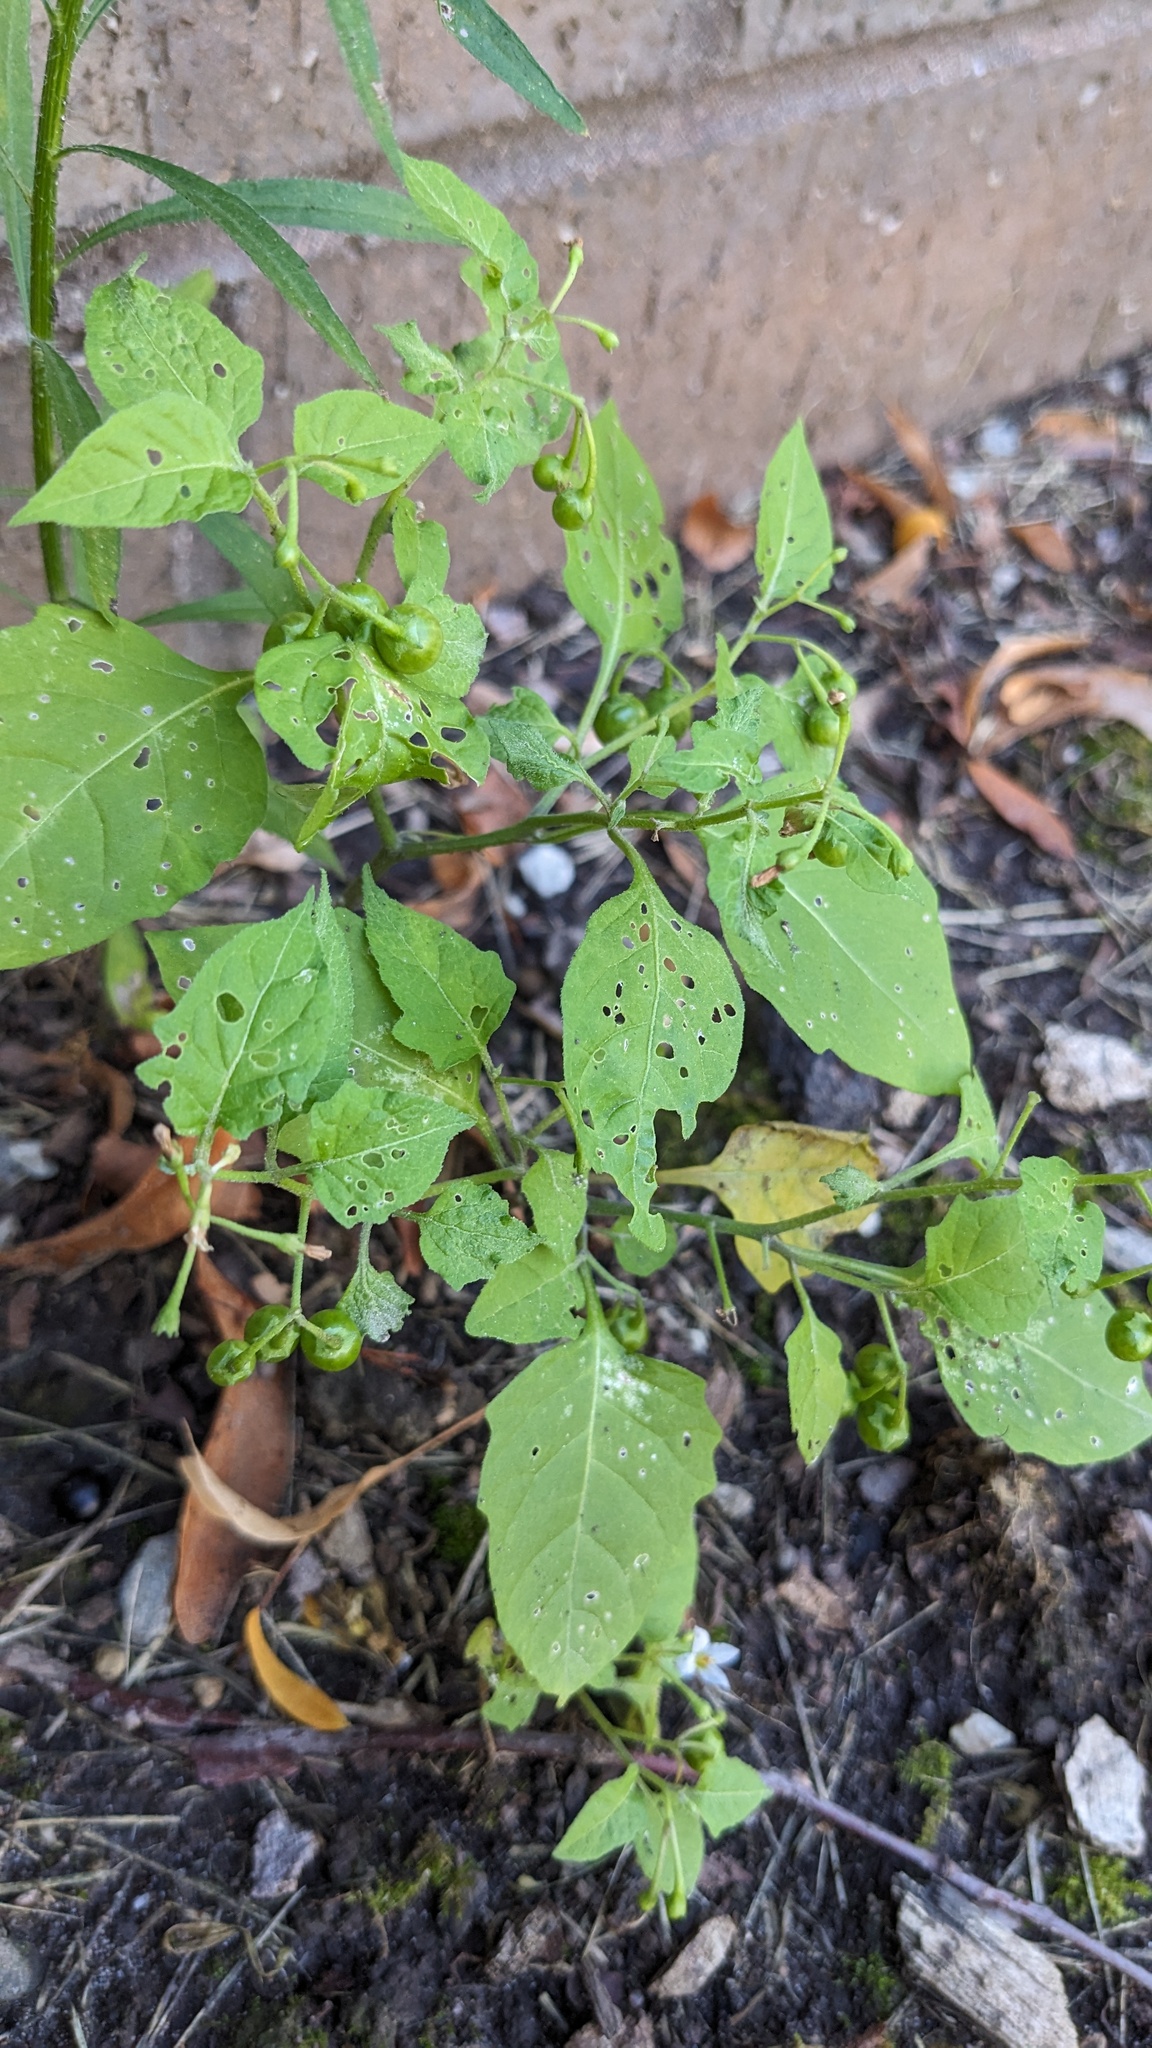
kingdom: Plantae
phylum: Tracheophyta
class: Magnoliopsida
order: Solanales
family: Solanaceae
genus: Solanum
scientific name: Solanum emulans
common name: Eastern black nightshade
